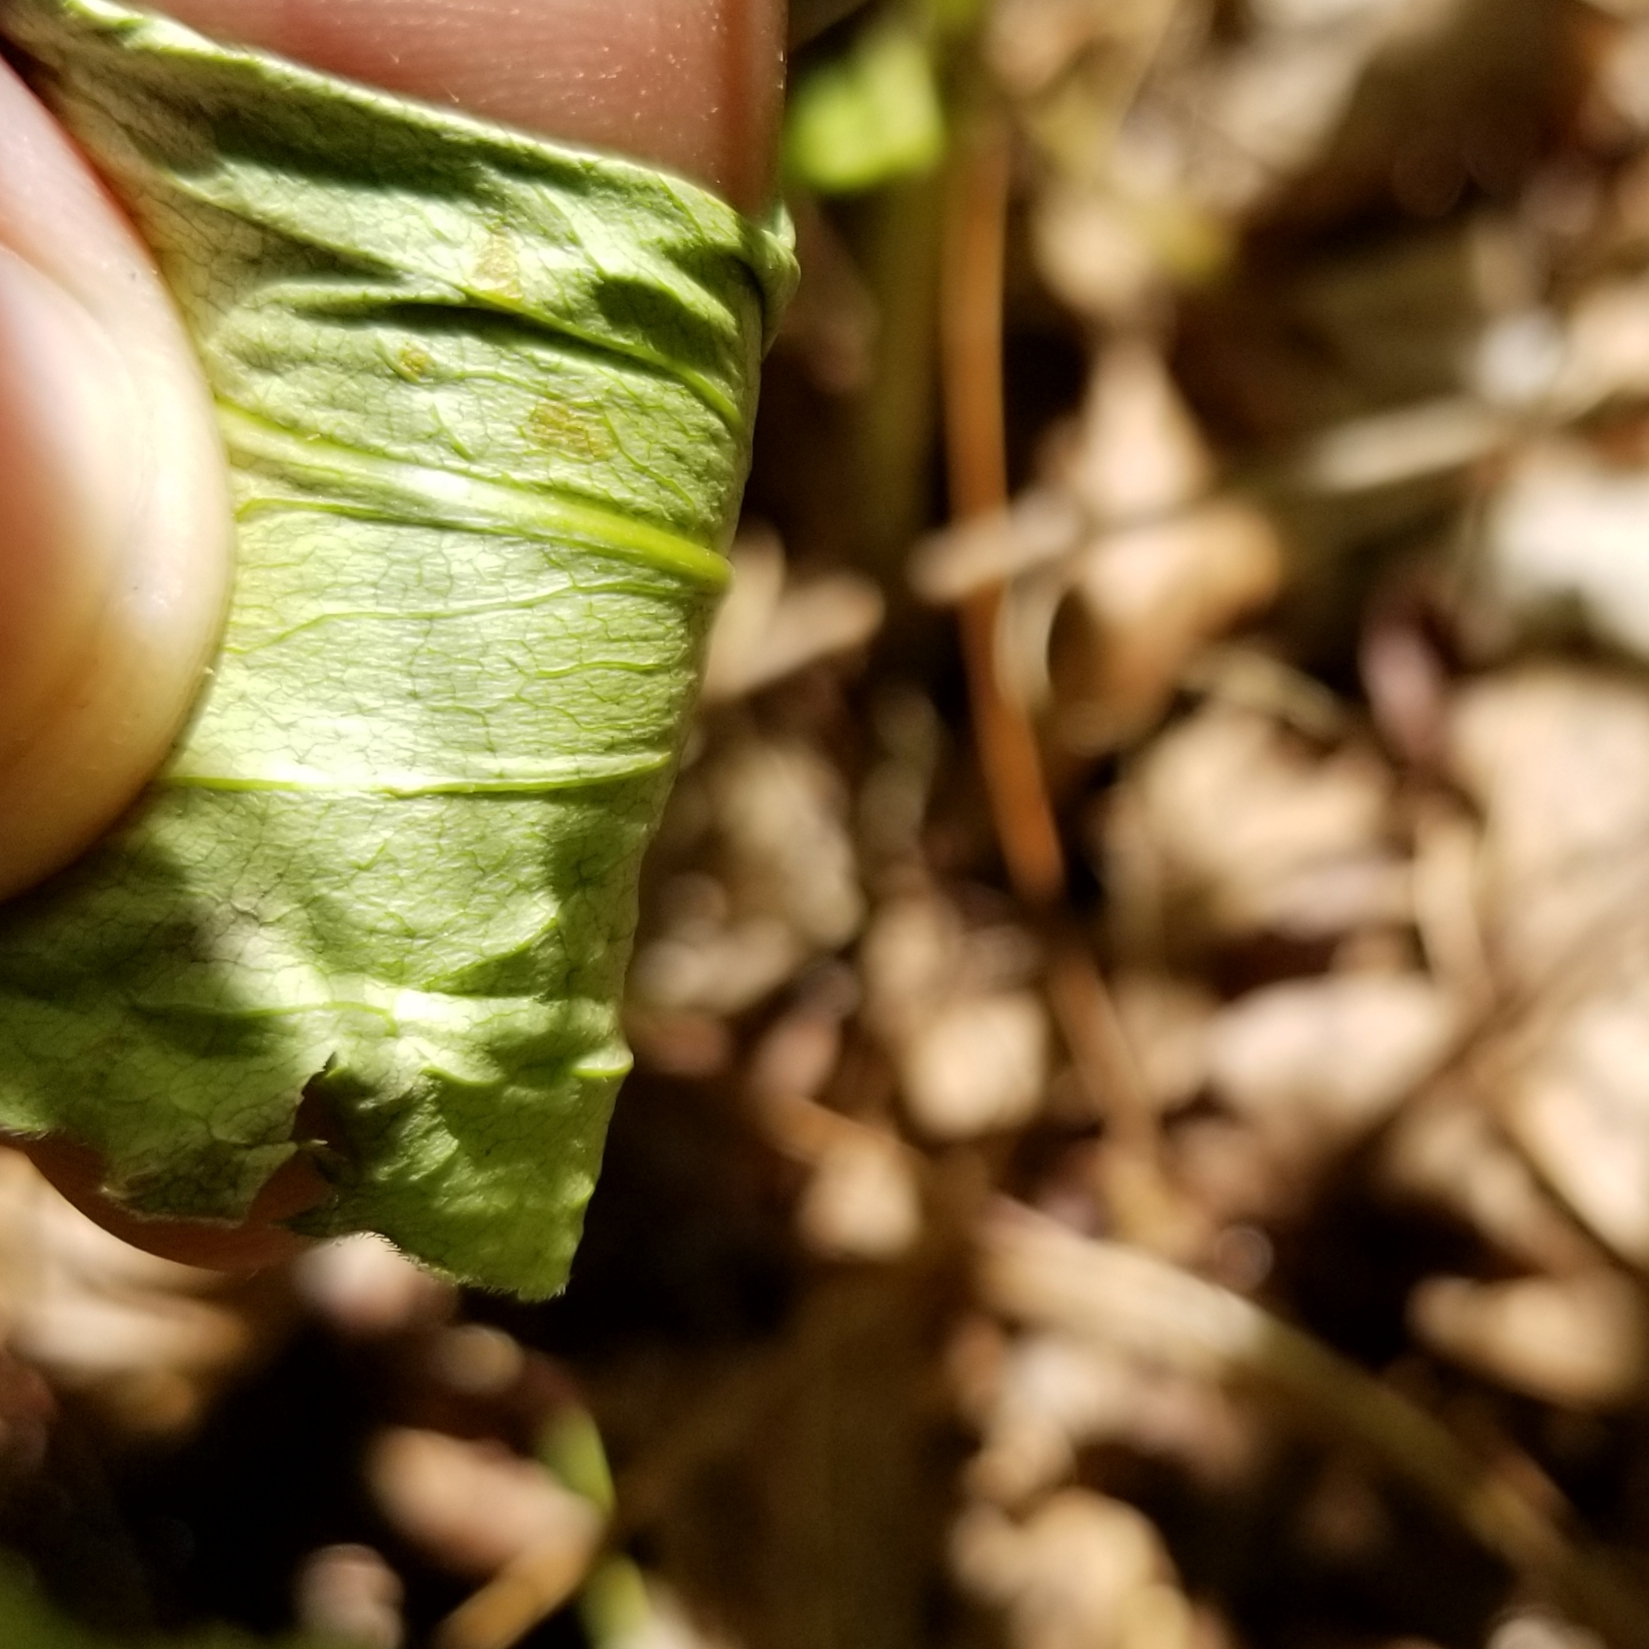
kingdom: Plantae
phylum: Tracheophyta
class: Magnoliopsida
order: Asterales
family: Asteraceae
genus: Solidago
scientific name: Solidago juncea
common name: Early goldenrod
